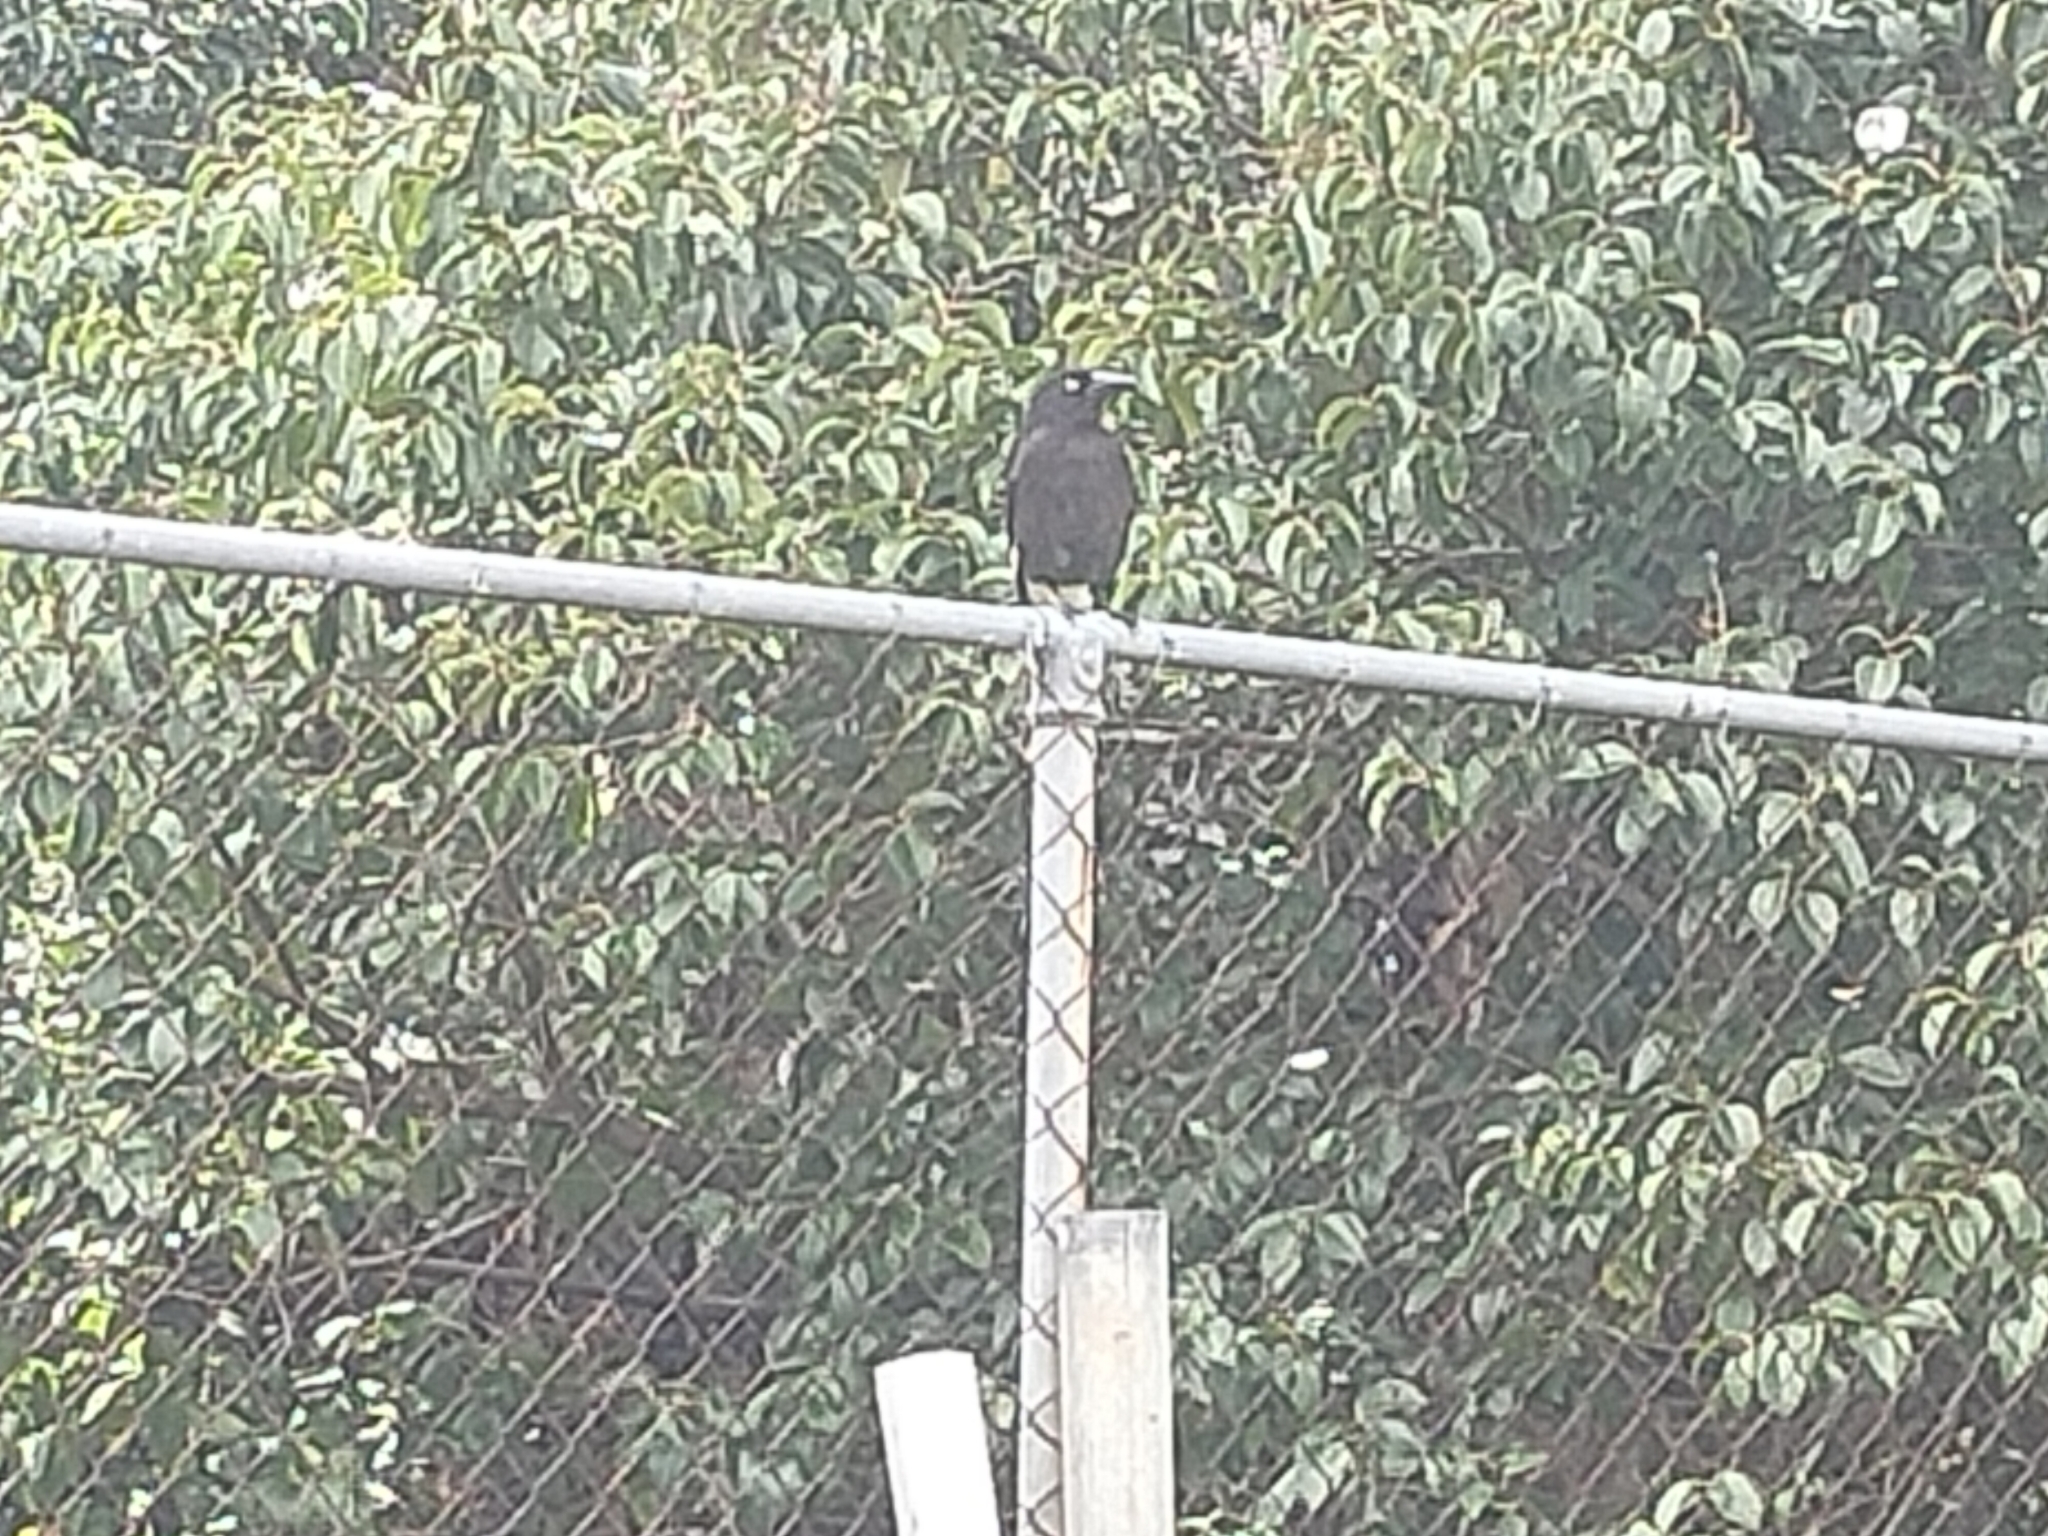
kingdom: Animalia
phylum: Chordata
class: Aves
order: Passeriformes
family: Cracticidae
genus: Strepera
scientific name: Strepera graculina
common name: Pied currawong
